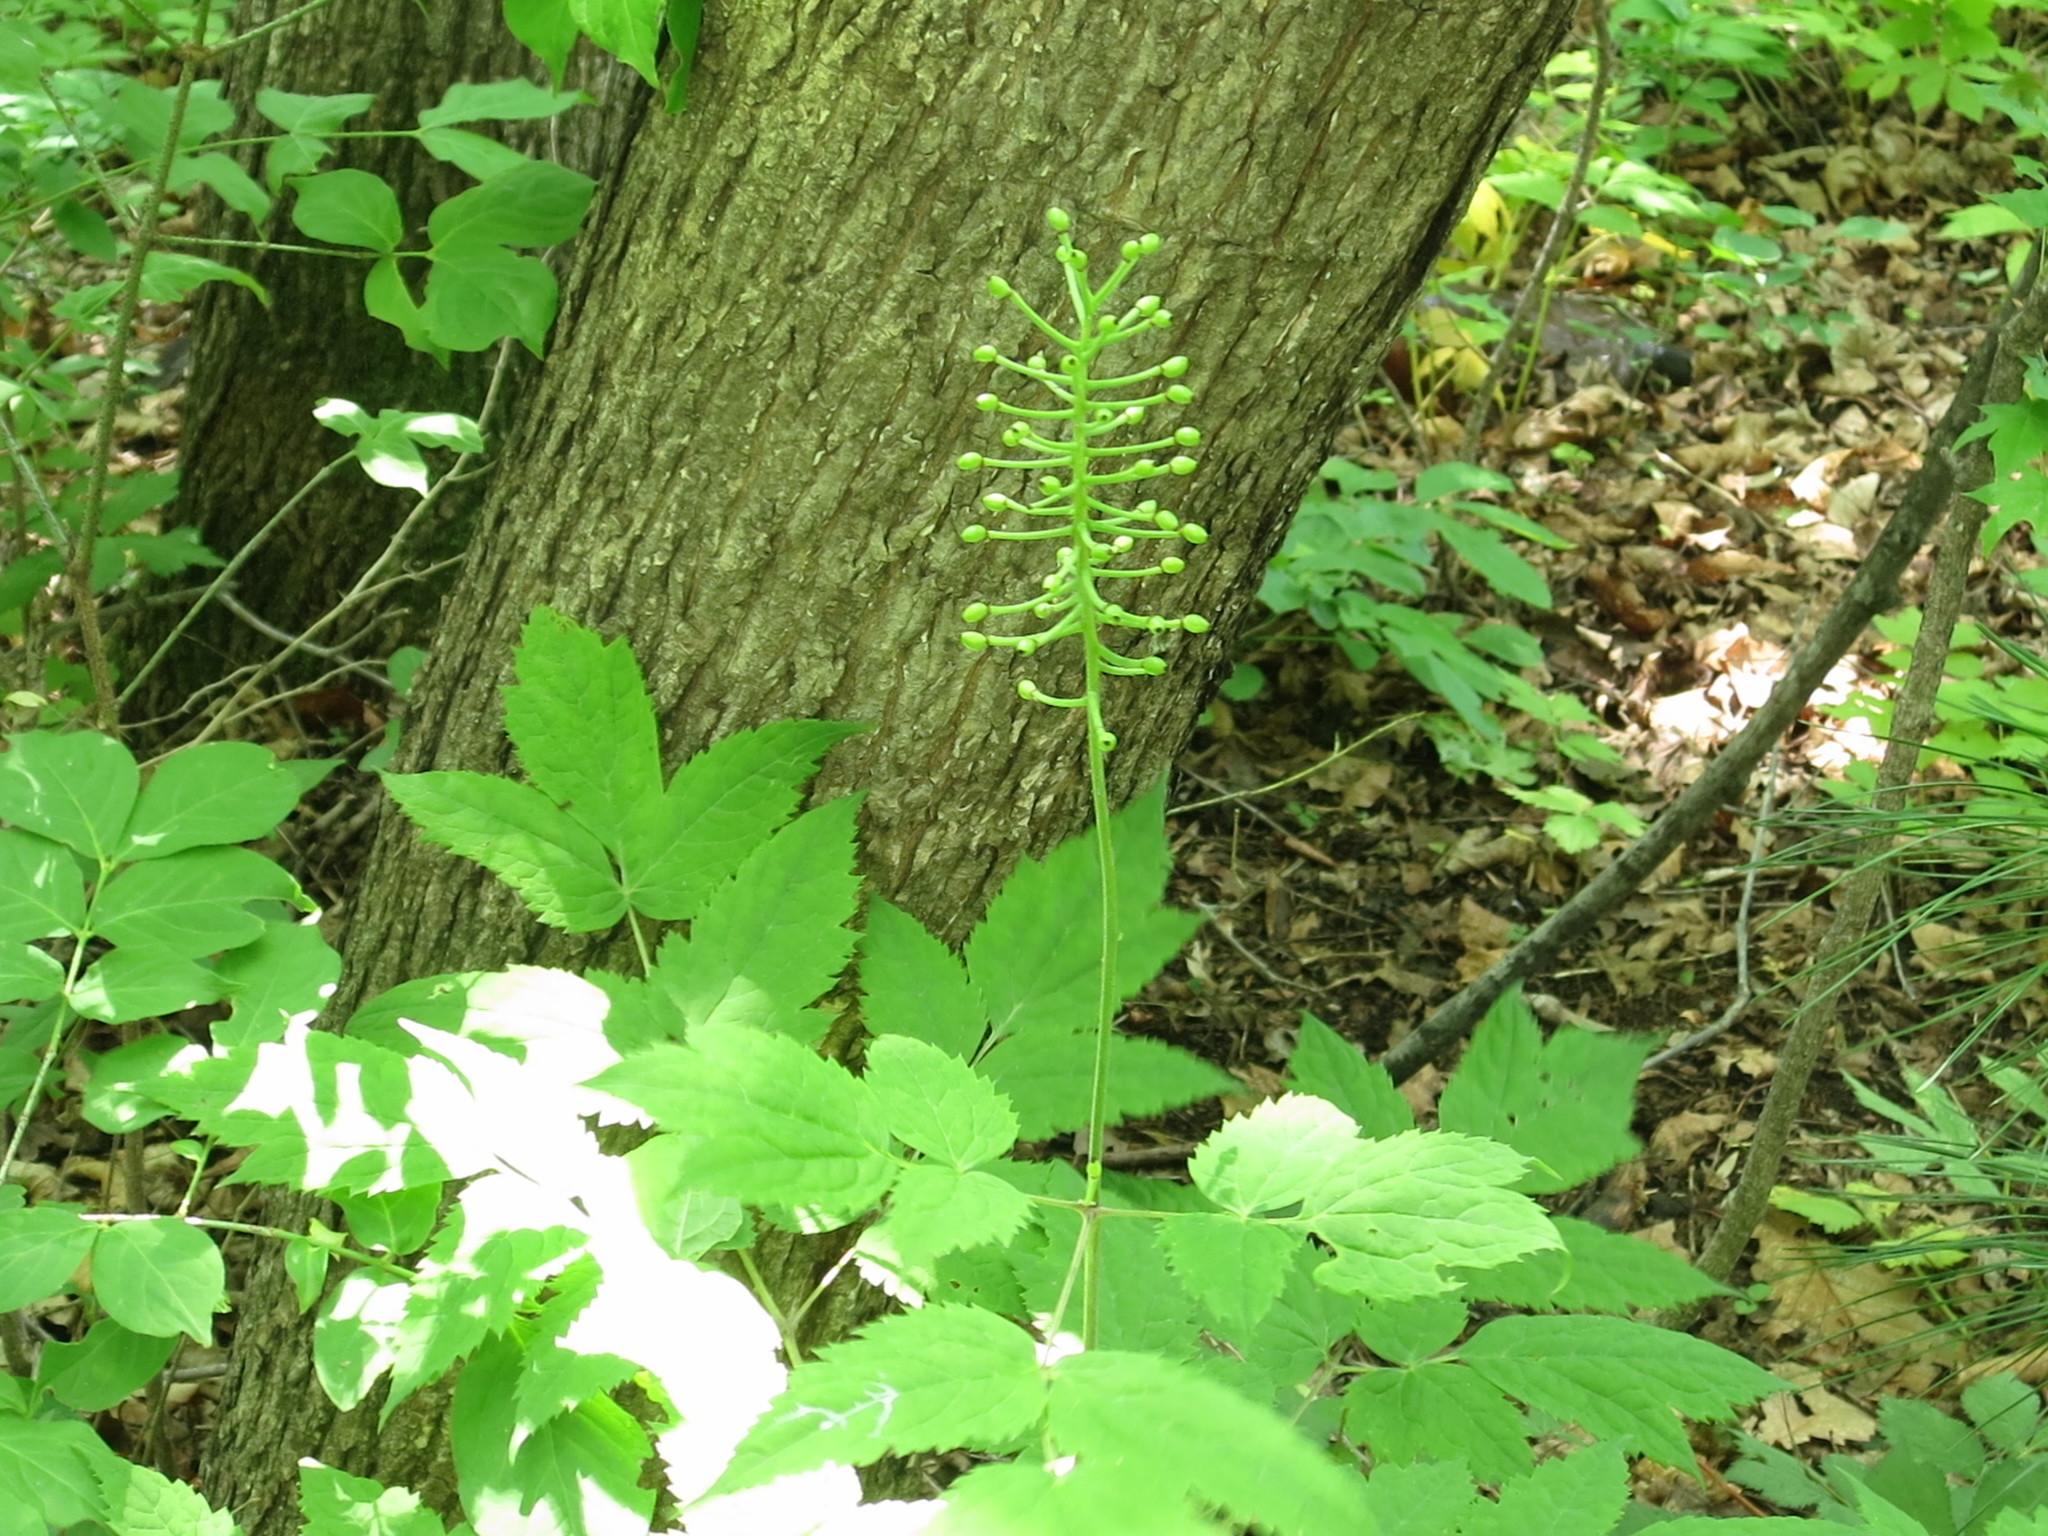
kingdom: Plantae
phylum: Tracheophyta
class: Magnoliopsida
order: Ranunculales
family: Ranunculaceae
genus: Actaea
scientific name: Actaea asiatica
